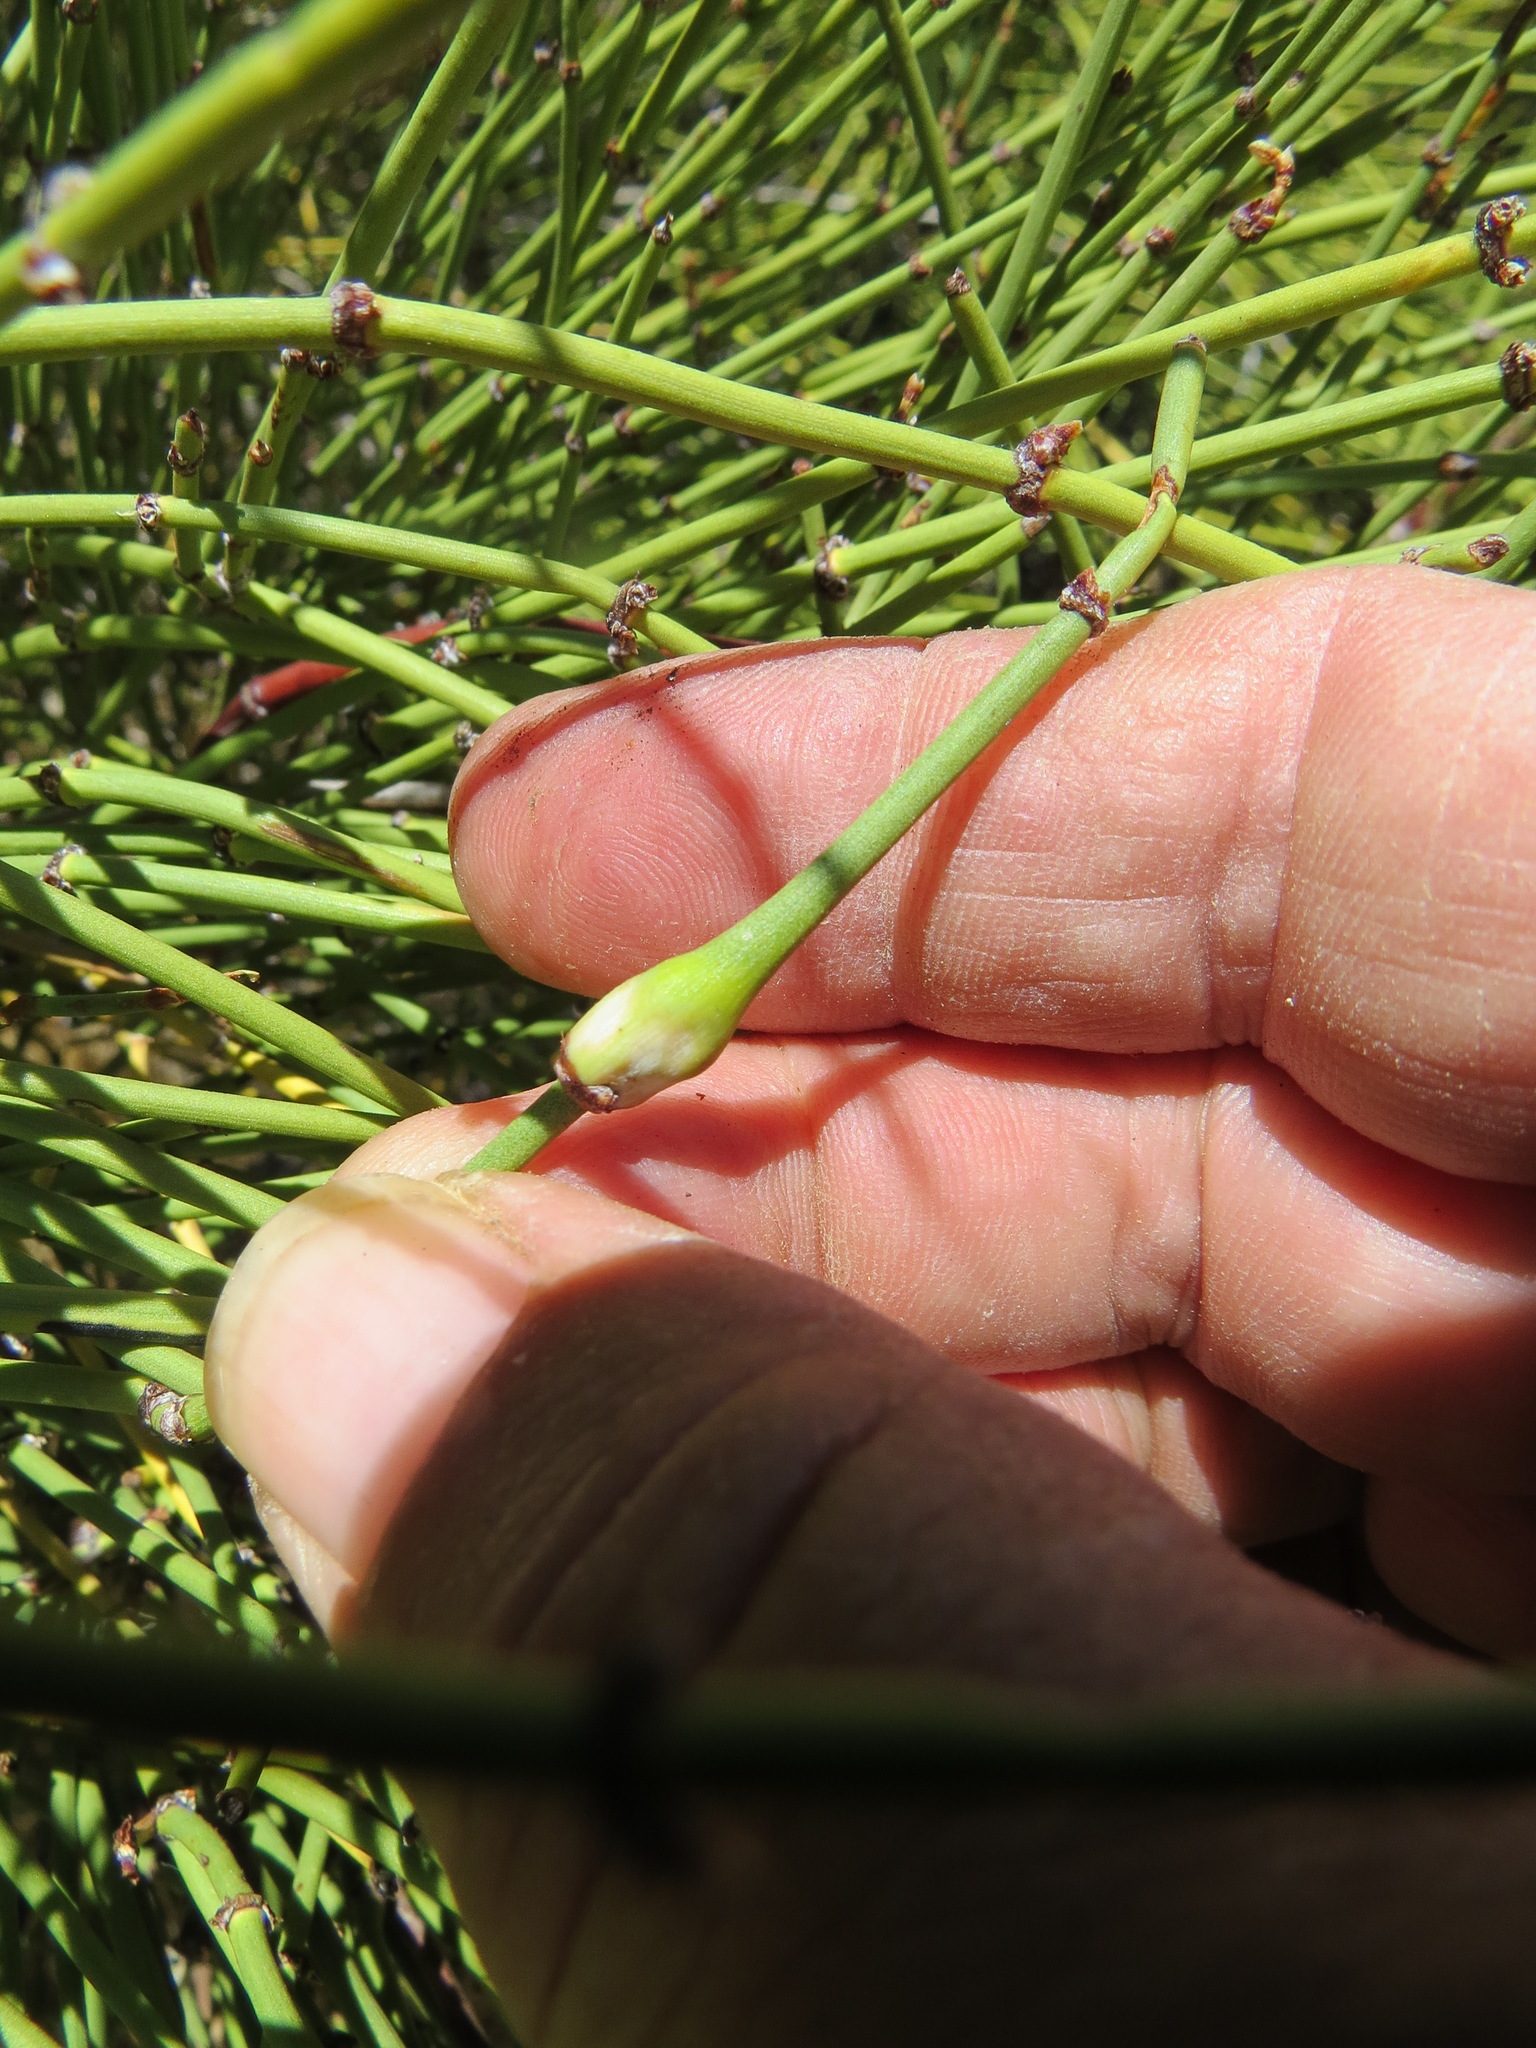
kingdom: Animalia
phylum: Arthropoda
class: Insecta
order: Diptera
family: Cecidomyiidae
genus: Lasioptera
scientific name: Lasioptera ephedrae
